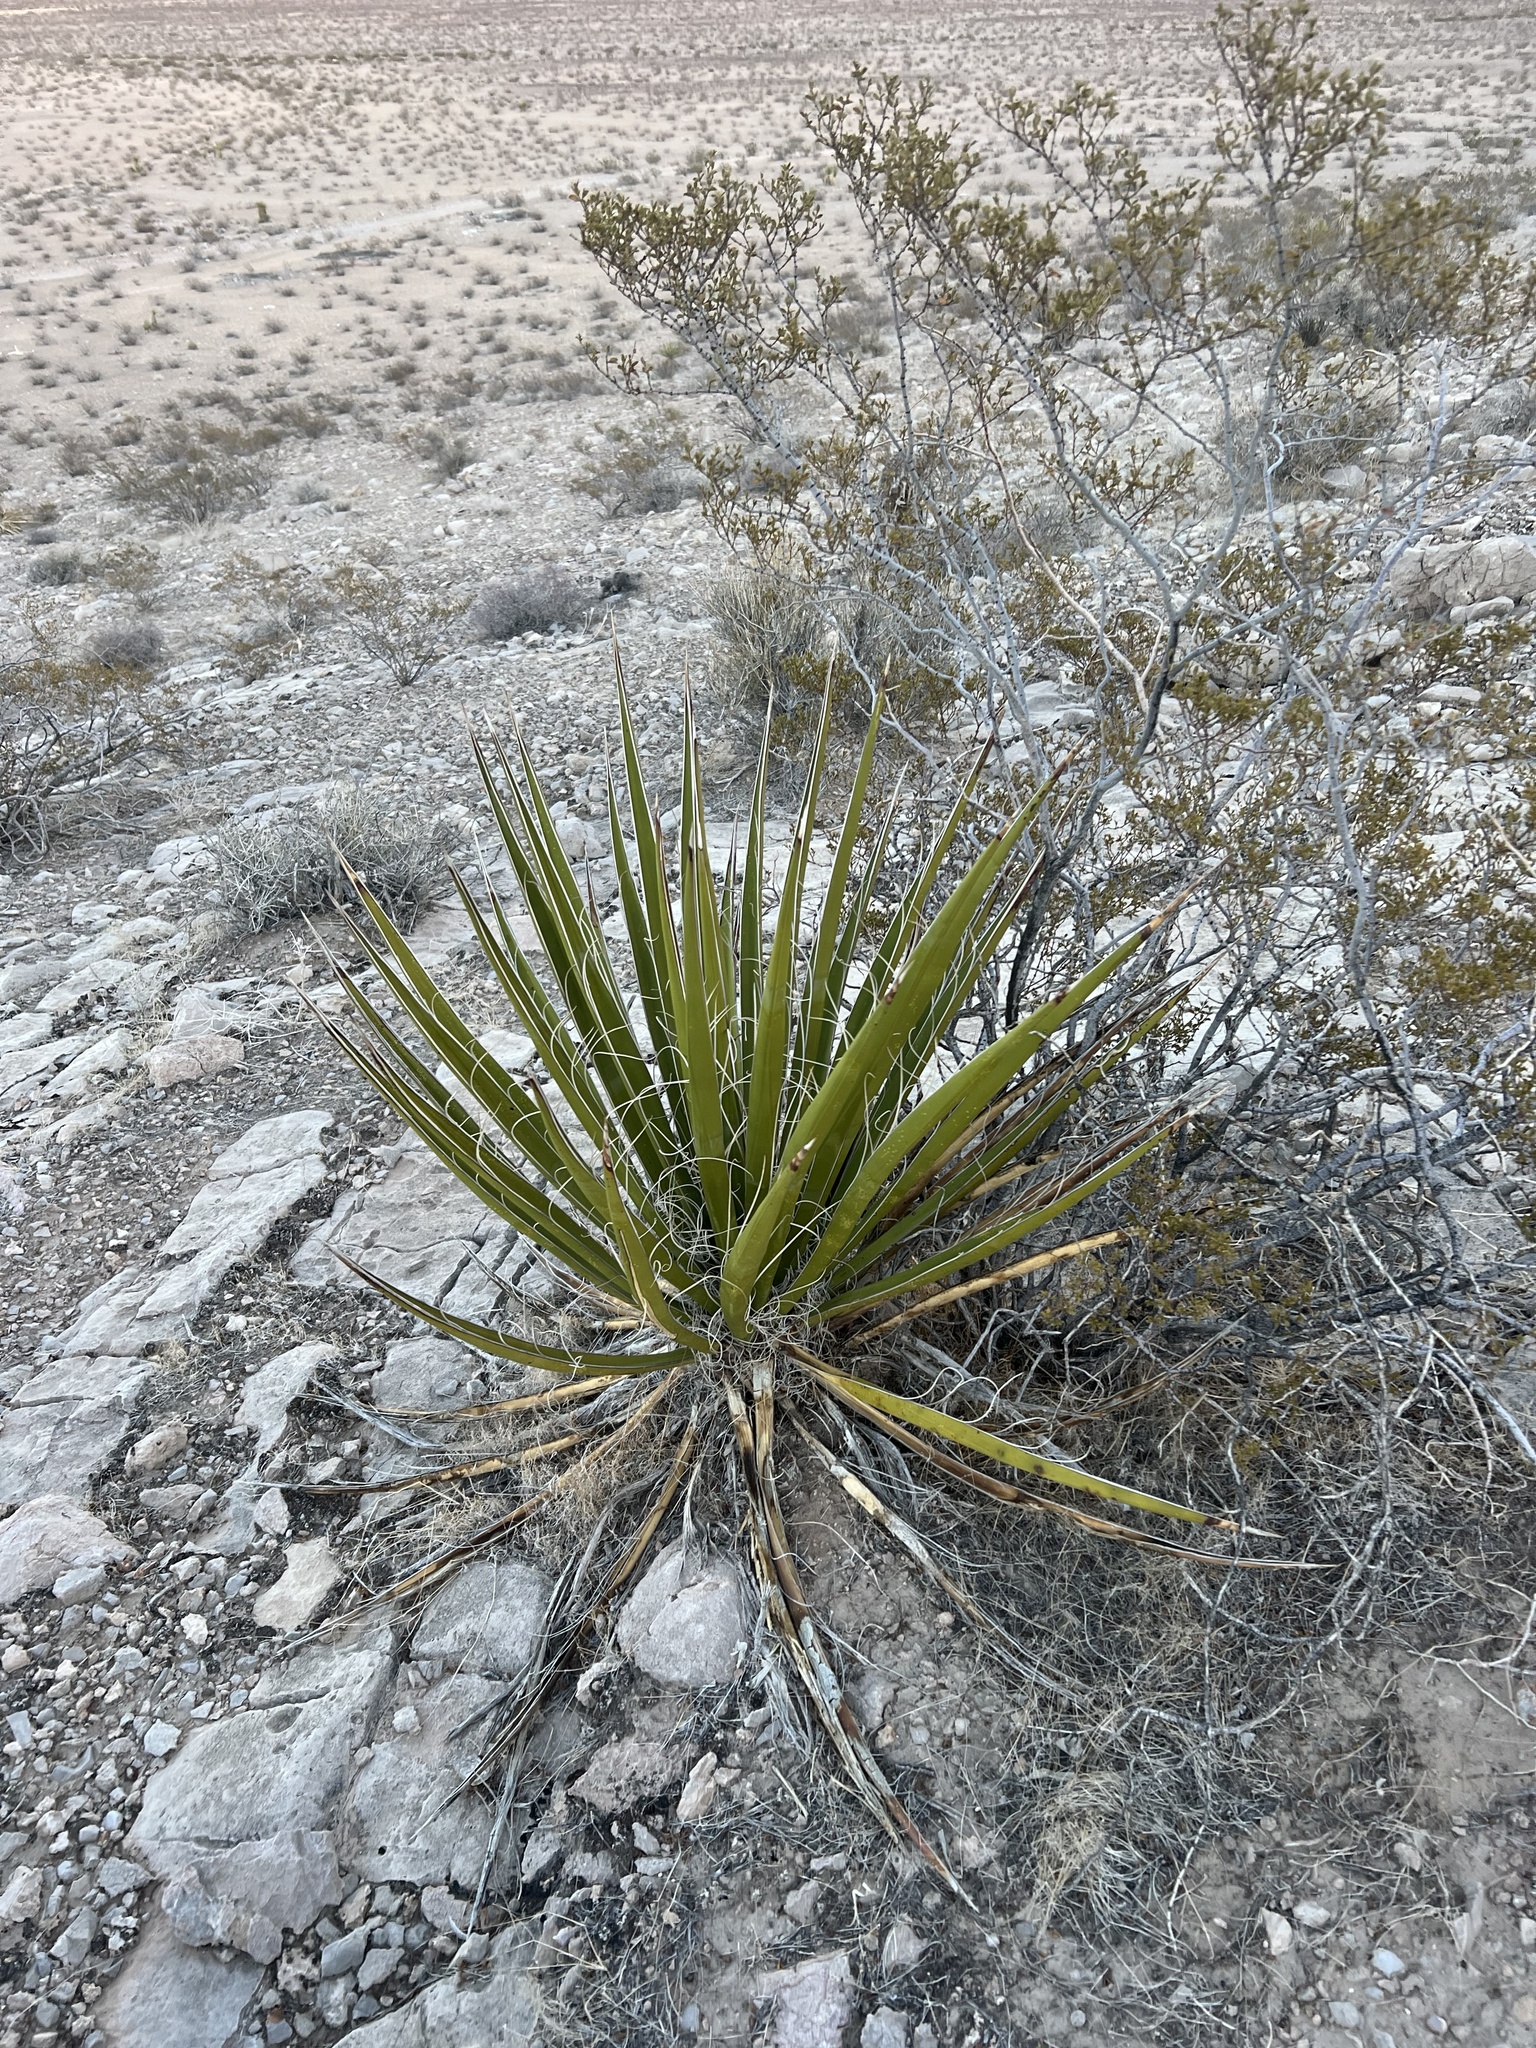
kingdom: Plantae
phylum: Tracheophyta
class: Liliopsida
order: Asparagales
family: Asparagaceae
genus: Yucca
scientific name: Yucca schidigera
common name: Mojave yucca
